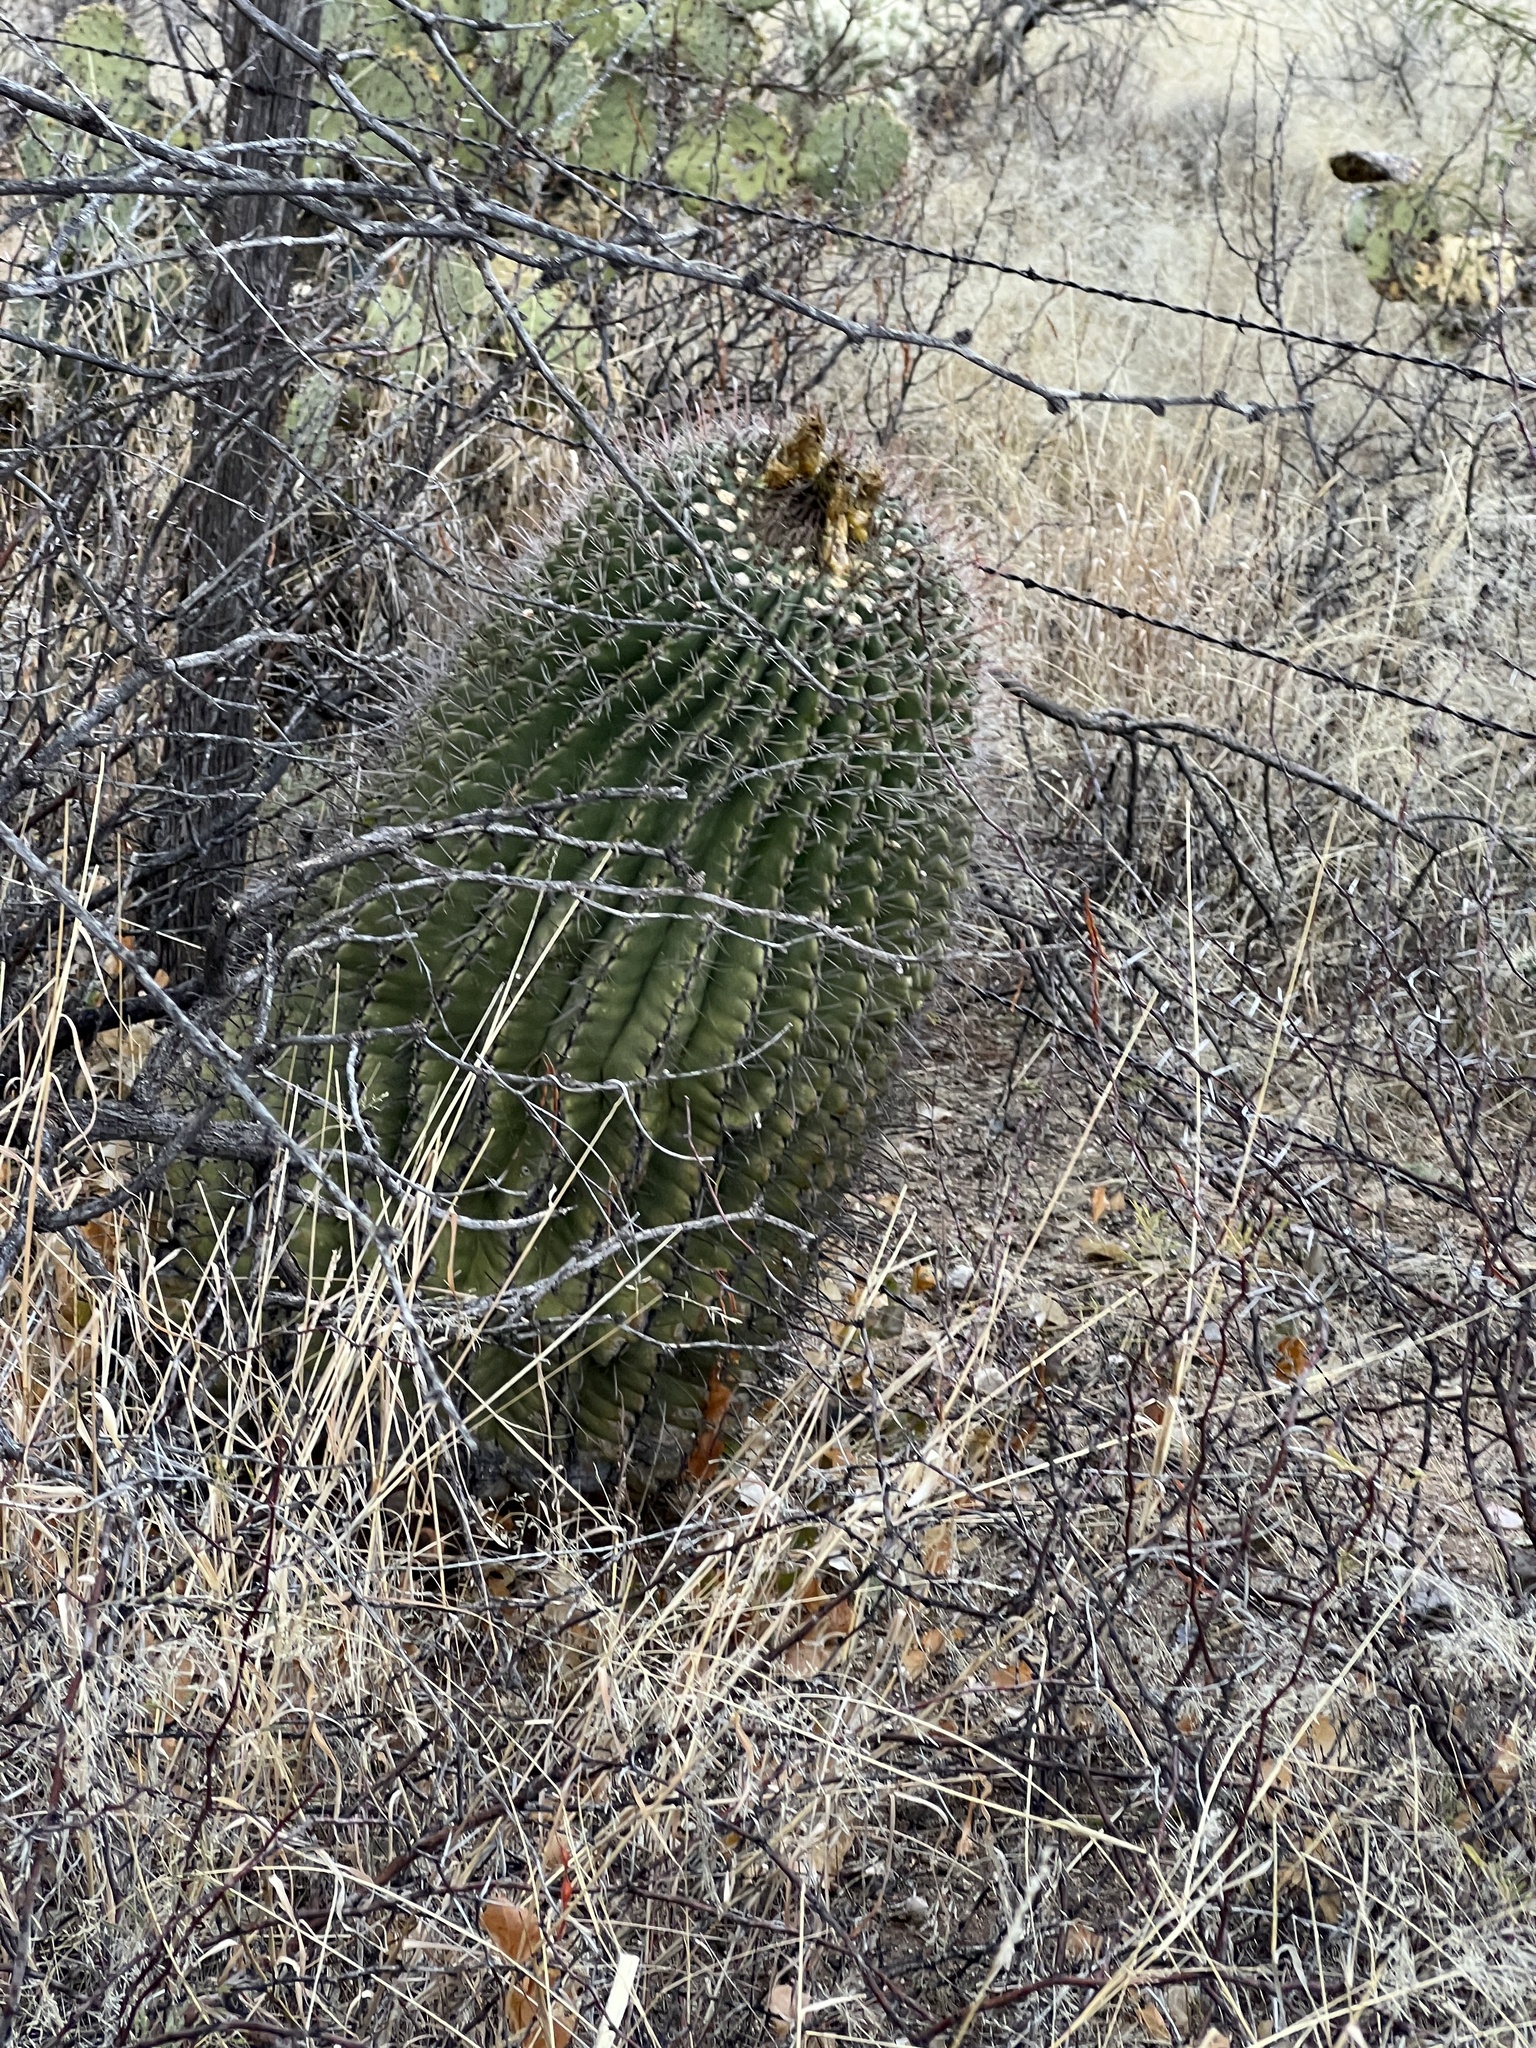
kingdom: Plantae
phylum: Tracheophyta
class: Magnoliopsida
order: Caryophyllales
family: Cactaceae
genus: Ferocactus
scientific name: Ferocactus wislizeni
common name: Candy barrel cactus
